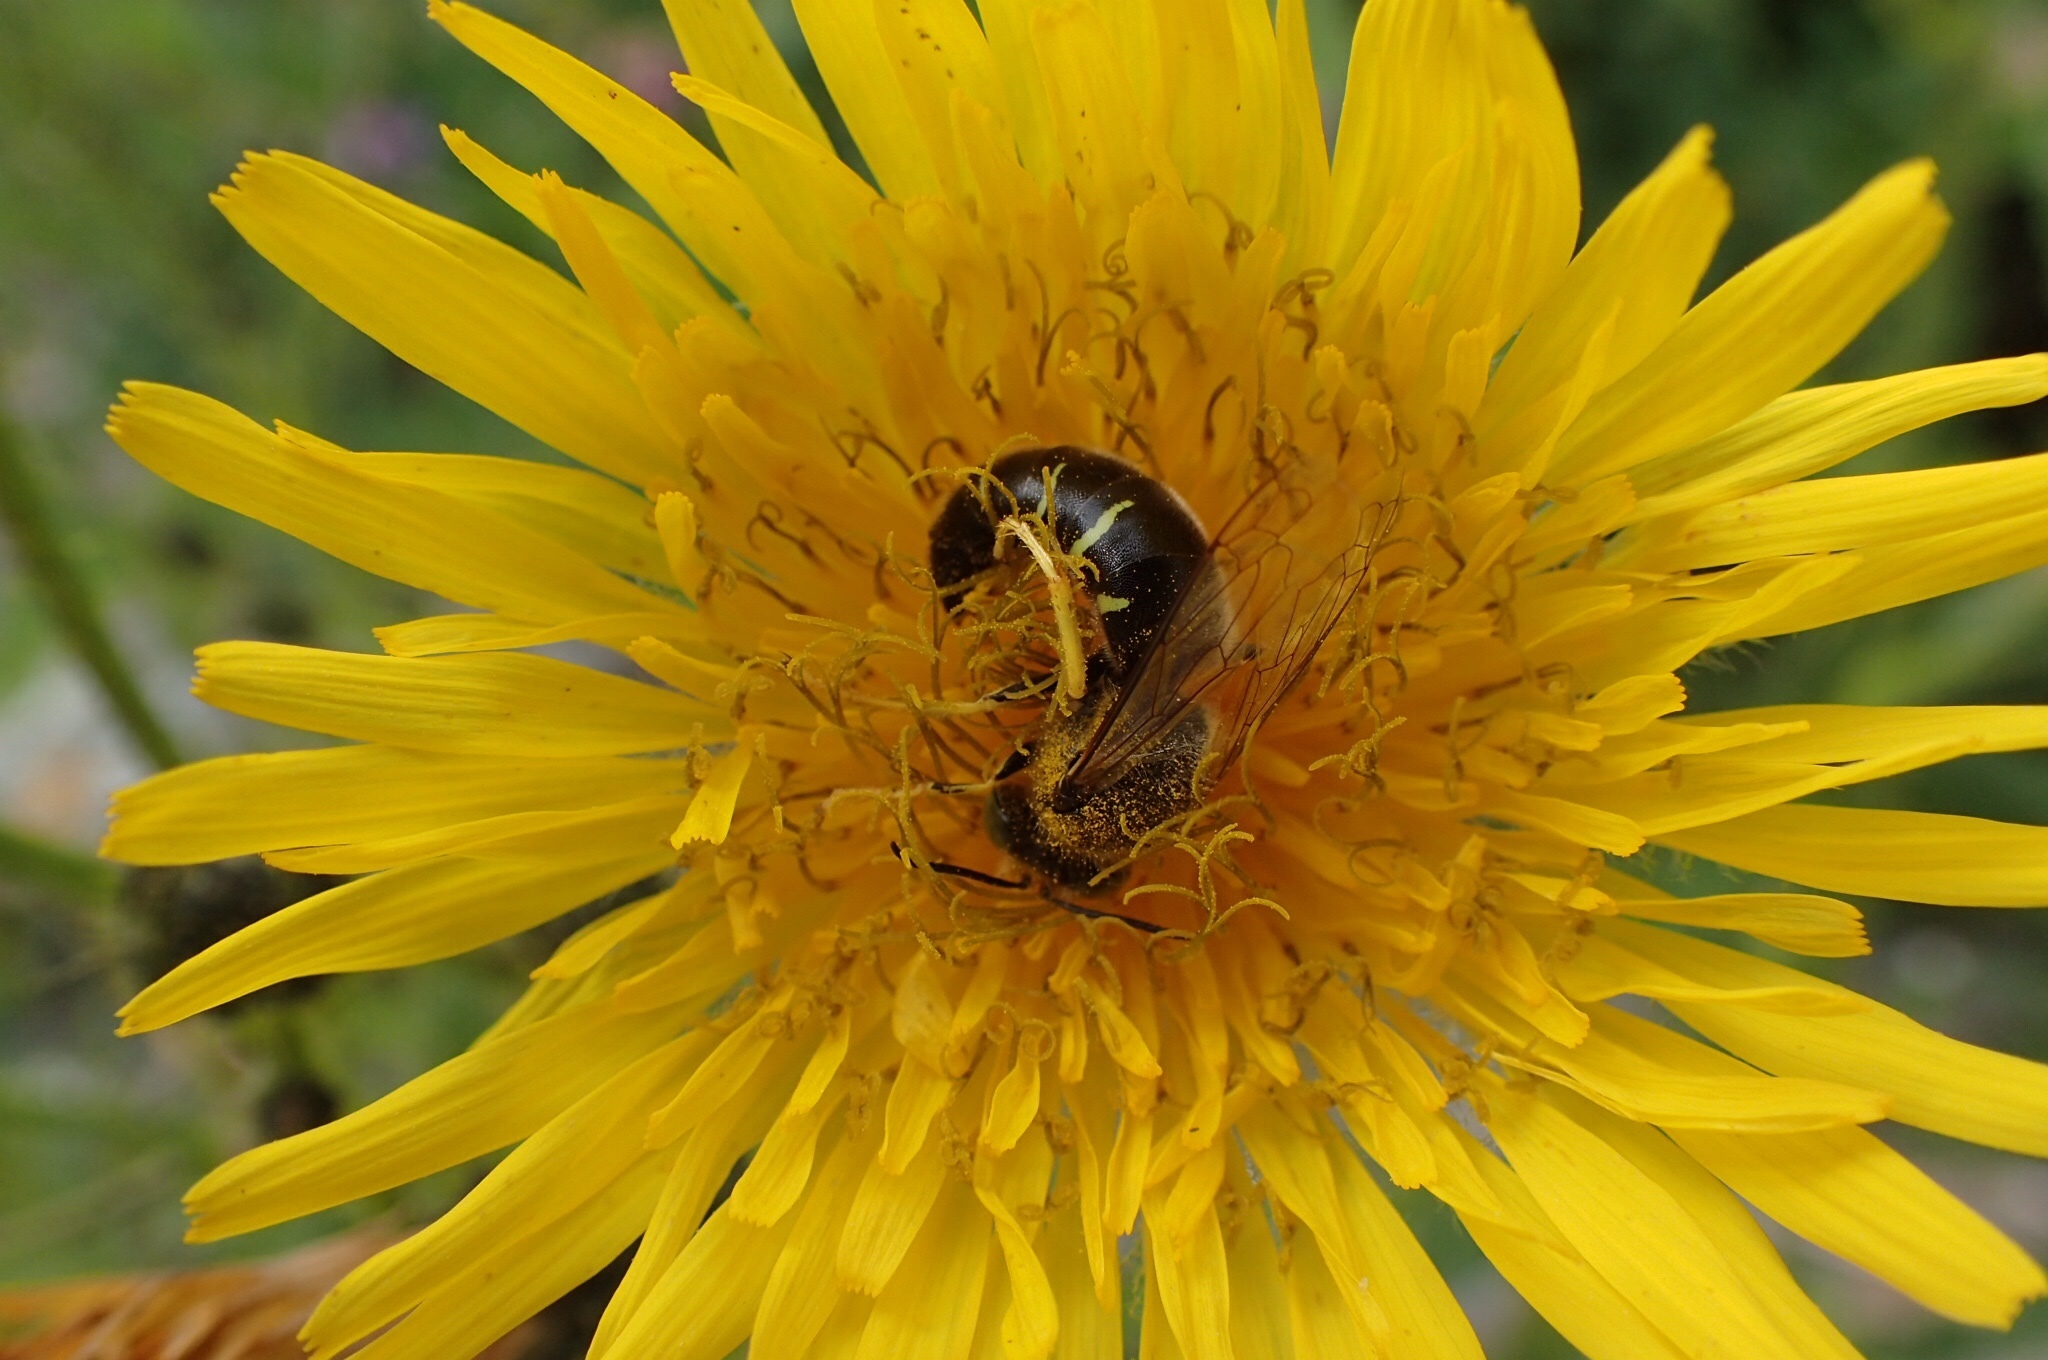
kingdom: Animalia
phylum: Arthropoda
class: Insecta
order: Hymenoptera
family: Crabronidae
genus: Bembix
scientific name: Bembix americana
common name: American sand wasp
